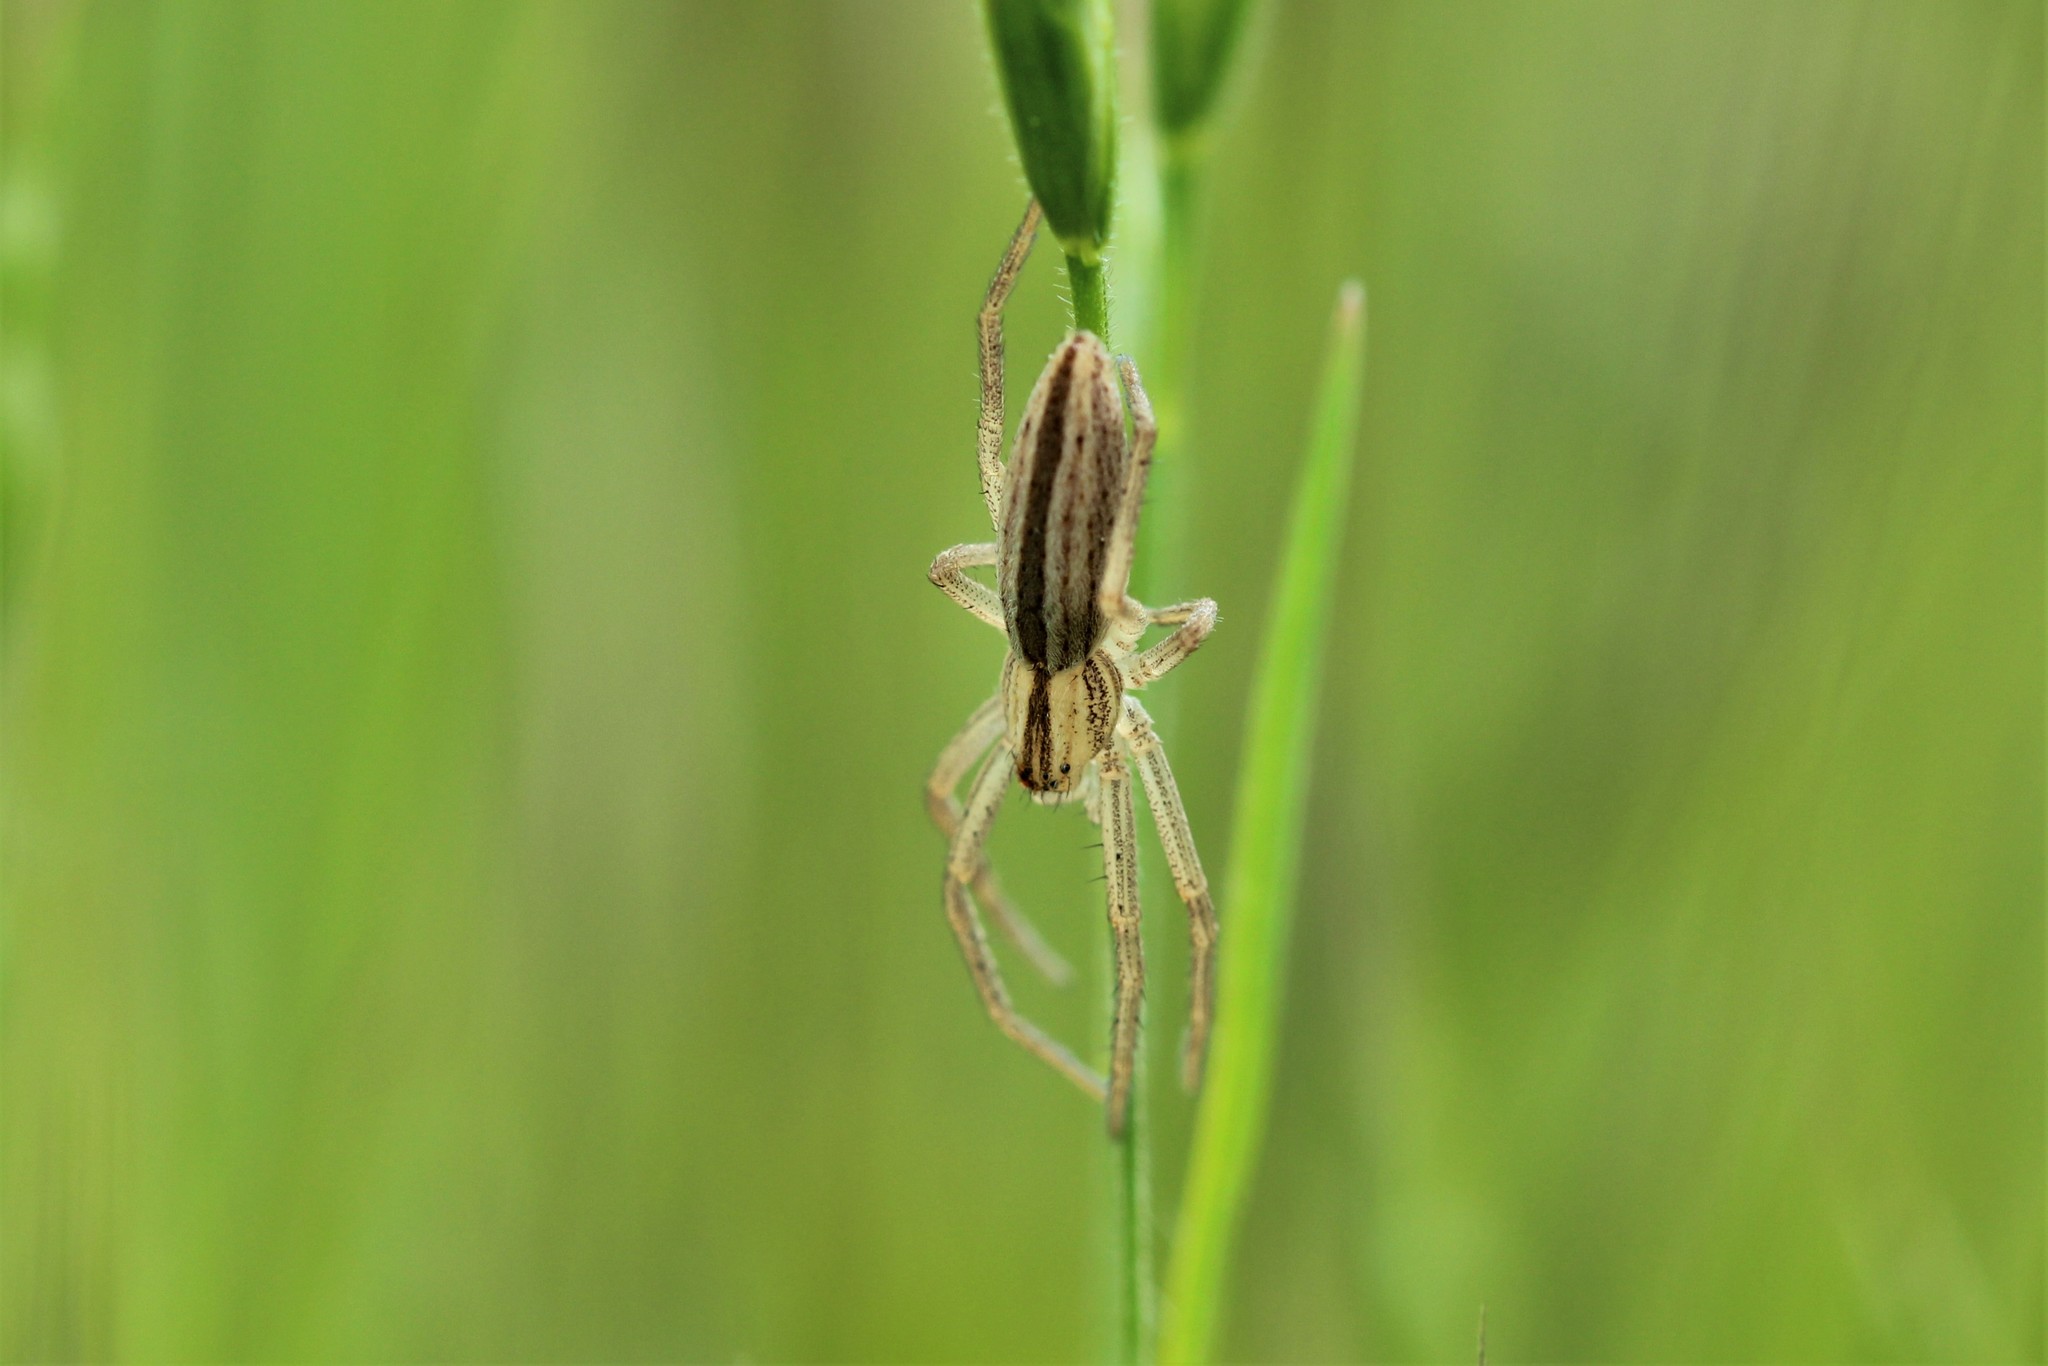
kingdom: Animalia
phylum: Arthropoda
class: Arachnida
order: Araneae
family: Philodromidae
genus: Tibellus
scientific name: Tibellus oblongus
